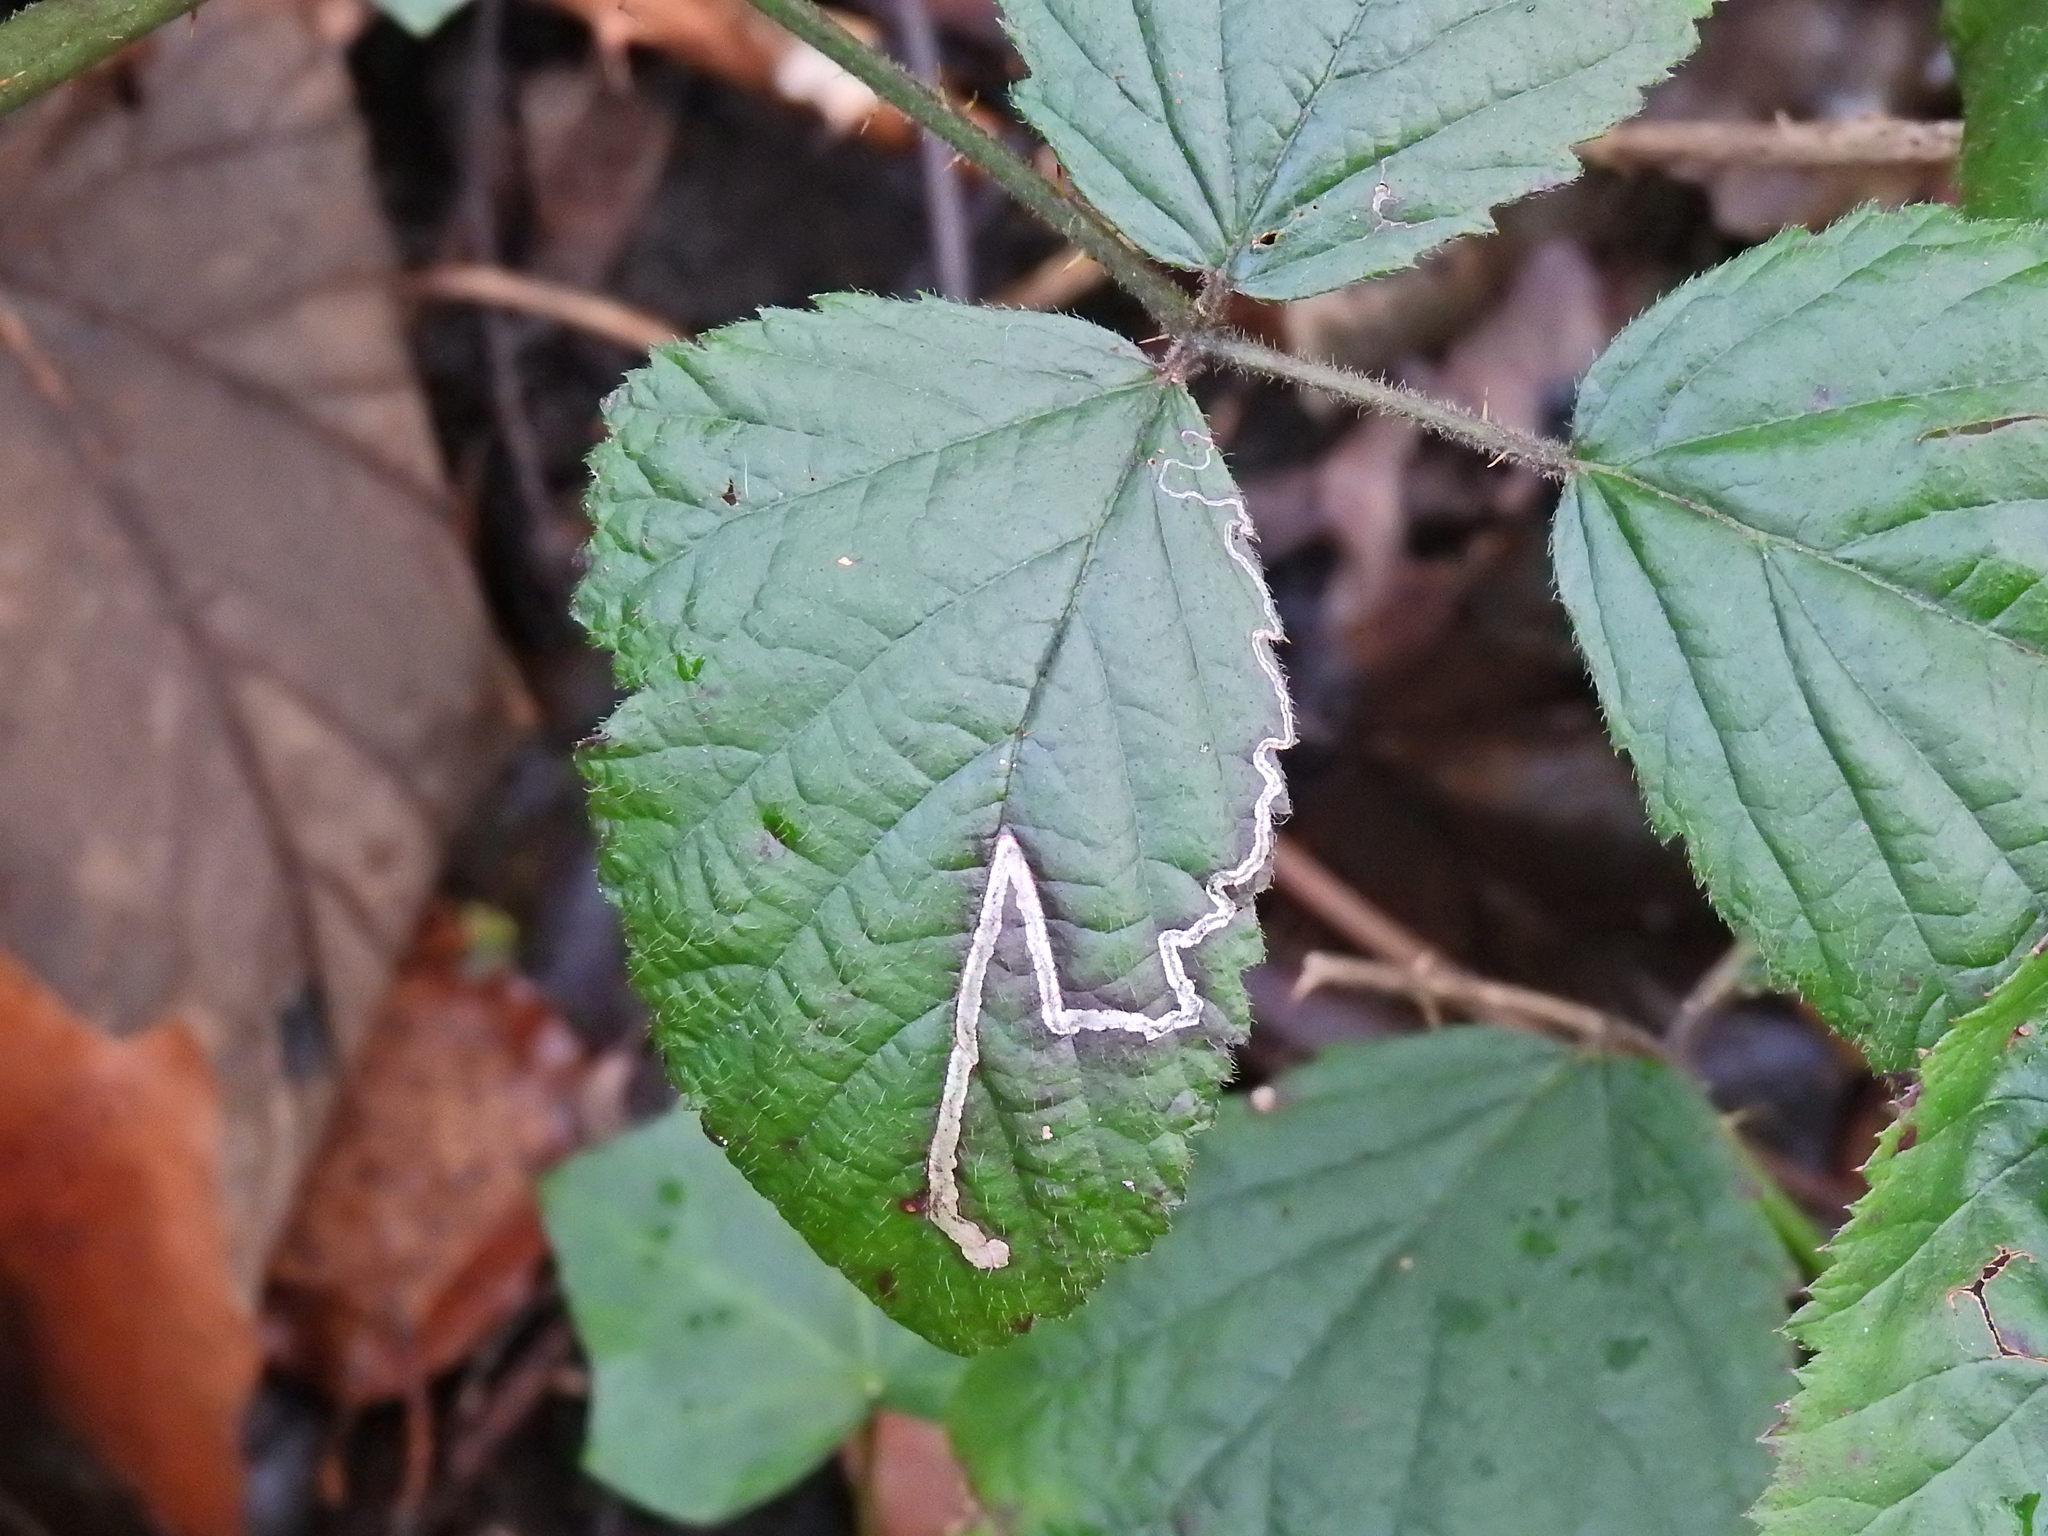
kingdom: Animalia
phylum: Arthropoda
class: Insecta
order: Lepidoptera
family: Nepticulidae
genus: Stigmella
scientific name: Stigmella aurella
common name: Golden pigmy
